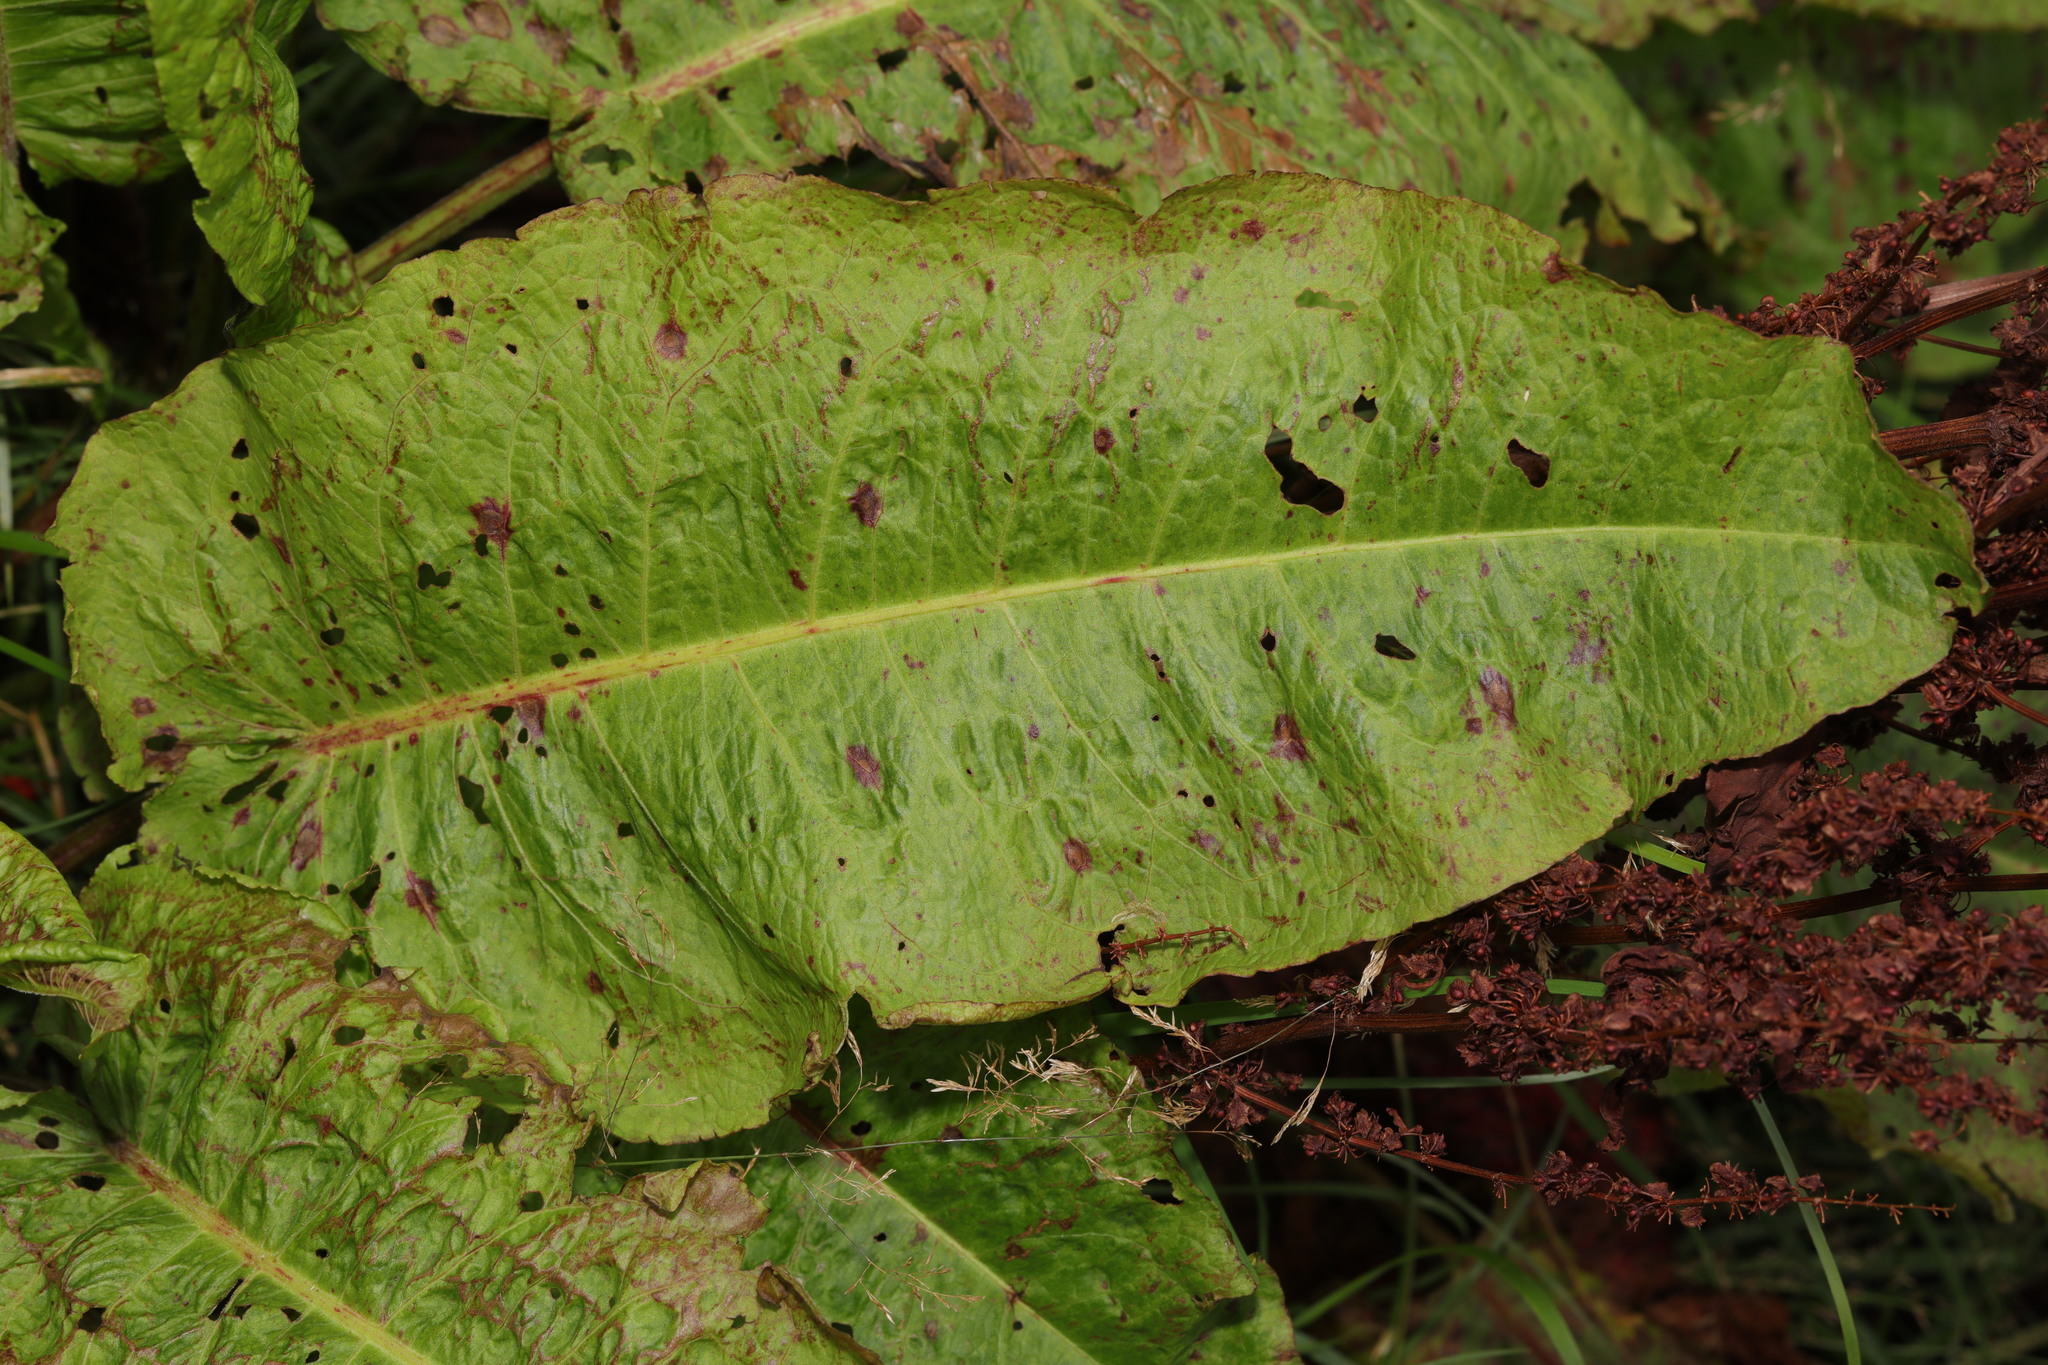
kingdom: Plantae
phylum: Tracheophyta
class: Magnoliopsida
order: Caryophyllales
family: Polygonaceae
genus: Rumex
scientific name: Rumex obtusifolius
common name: Bitter dock
